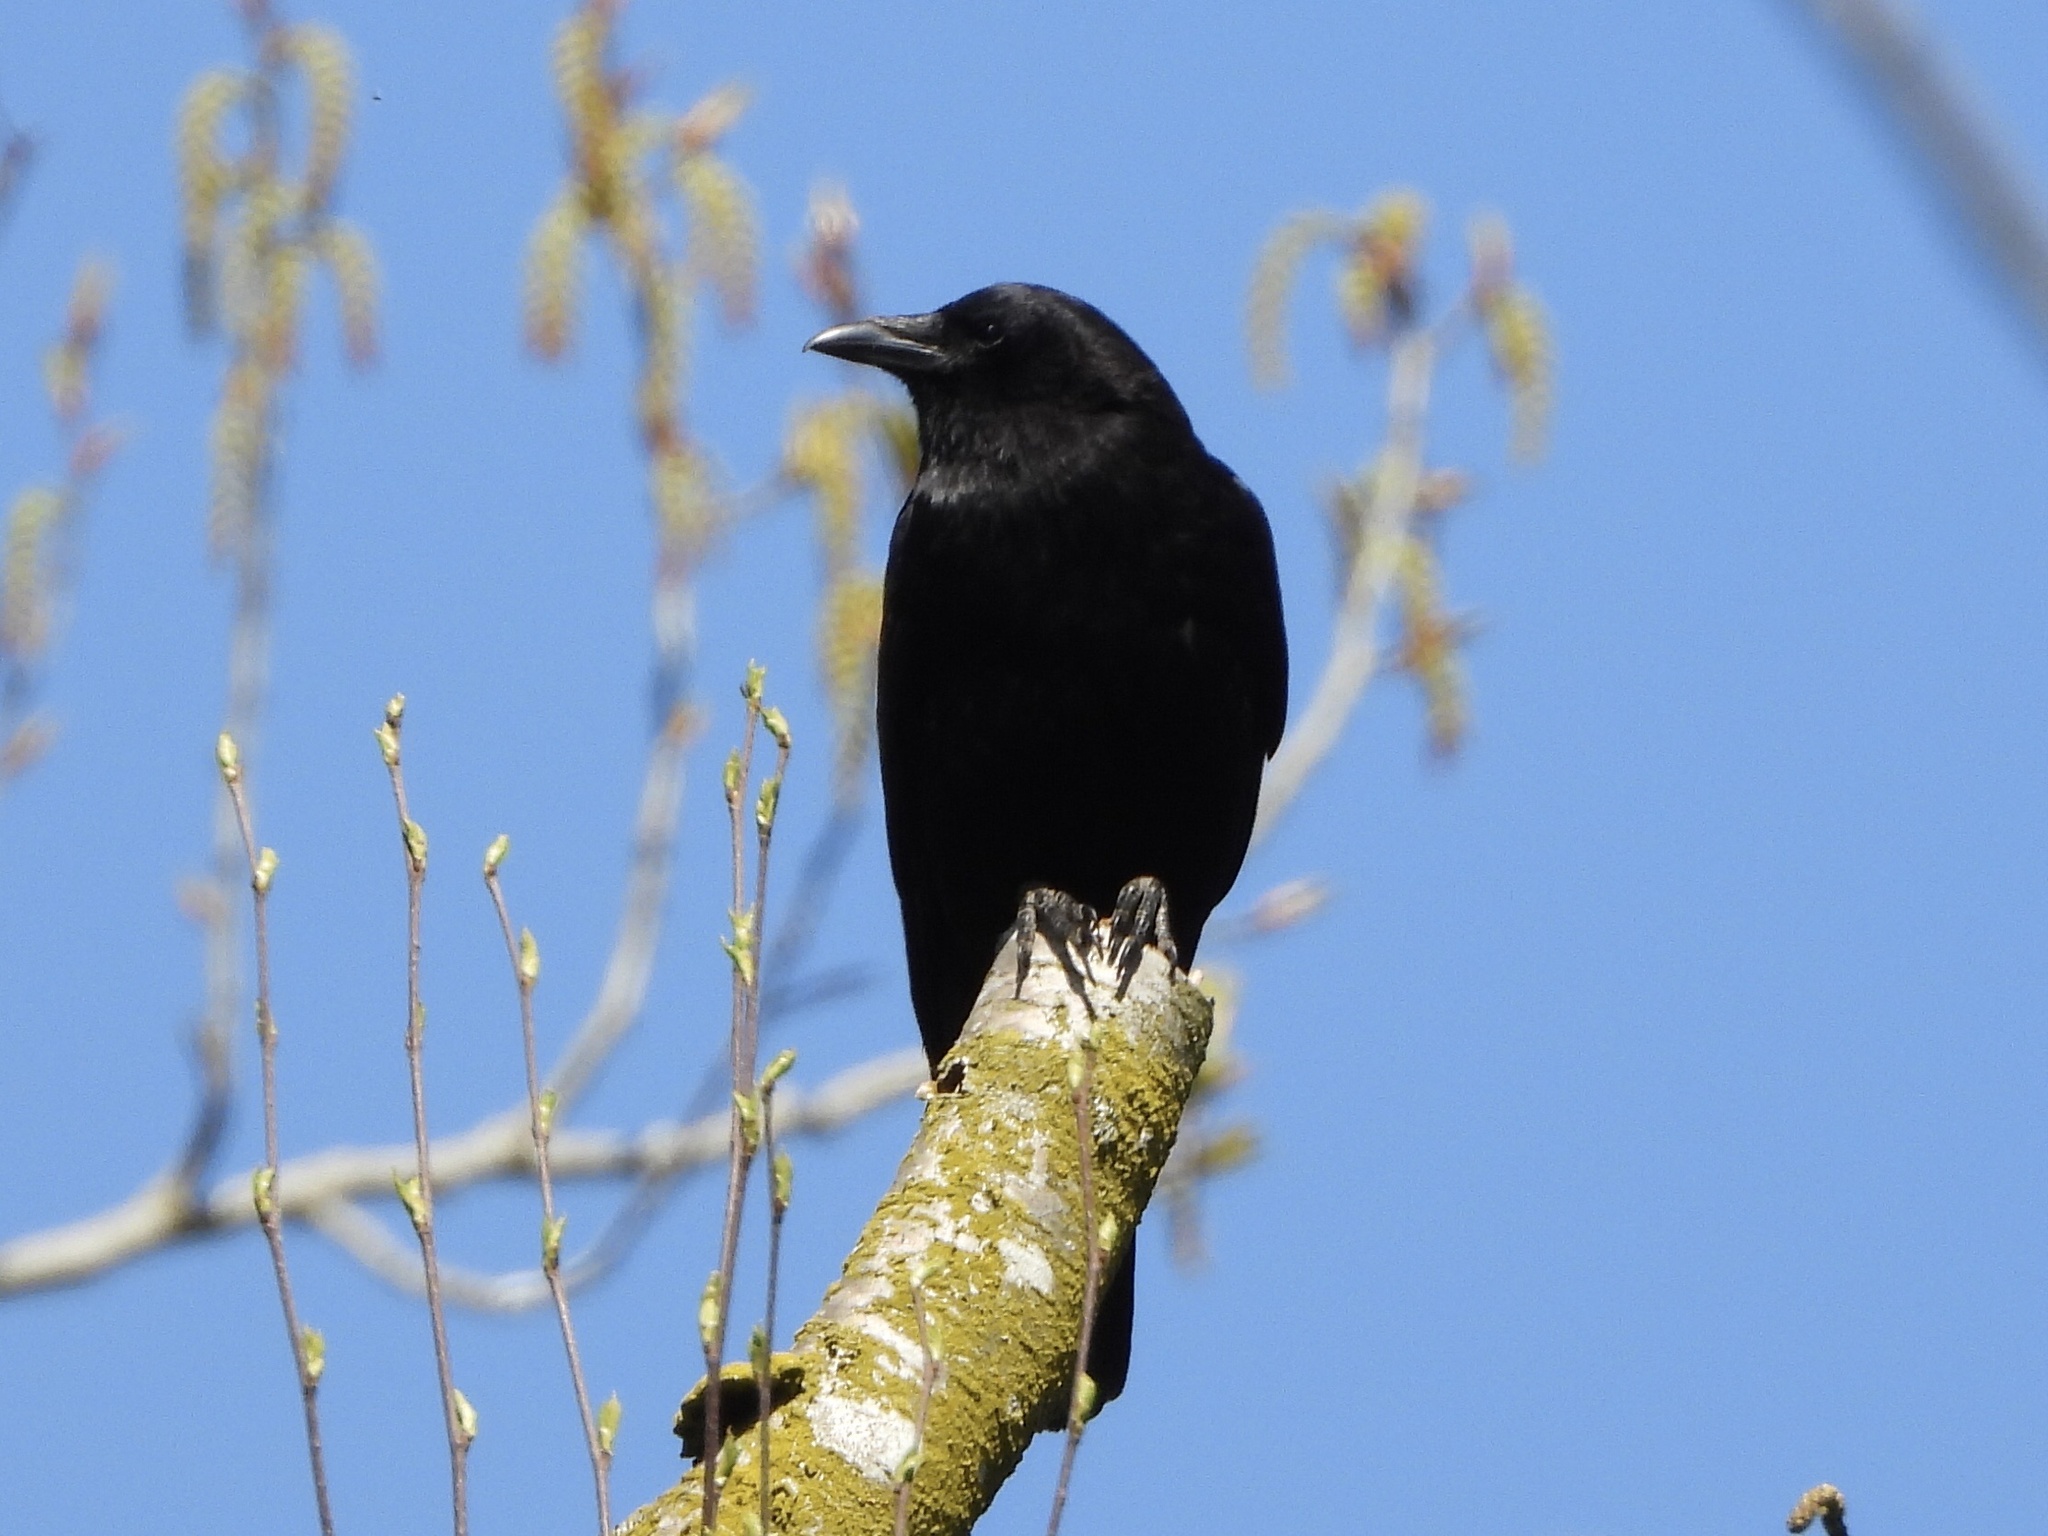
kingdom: Animalia
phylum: Chordata
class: Aves
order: Passeriformes
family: Corvidae
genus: Corvus
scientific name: Corvus brachyrhynchos
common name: American crow
